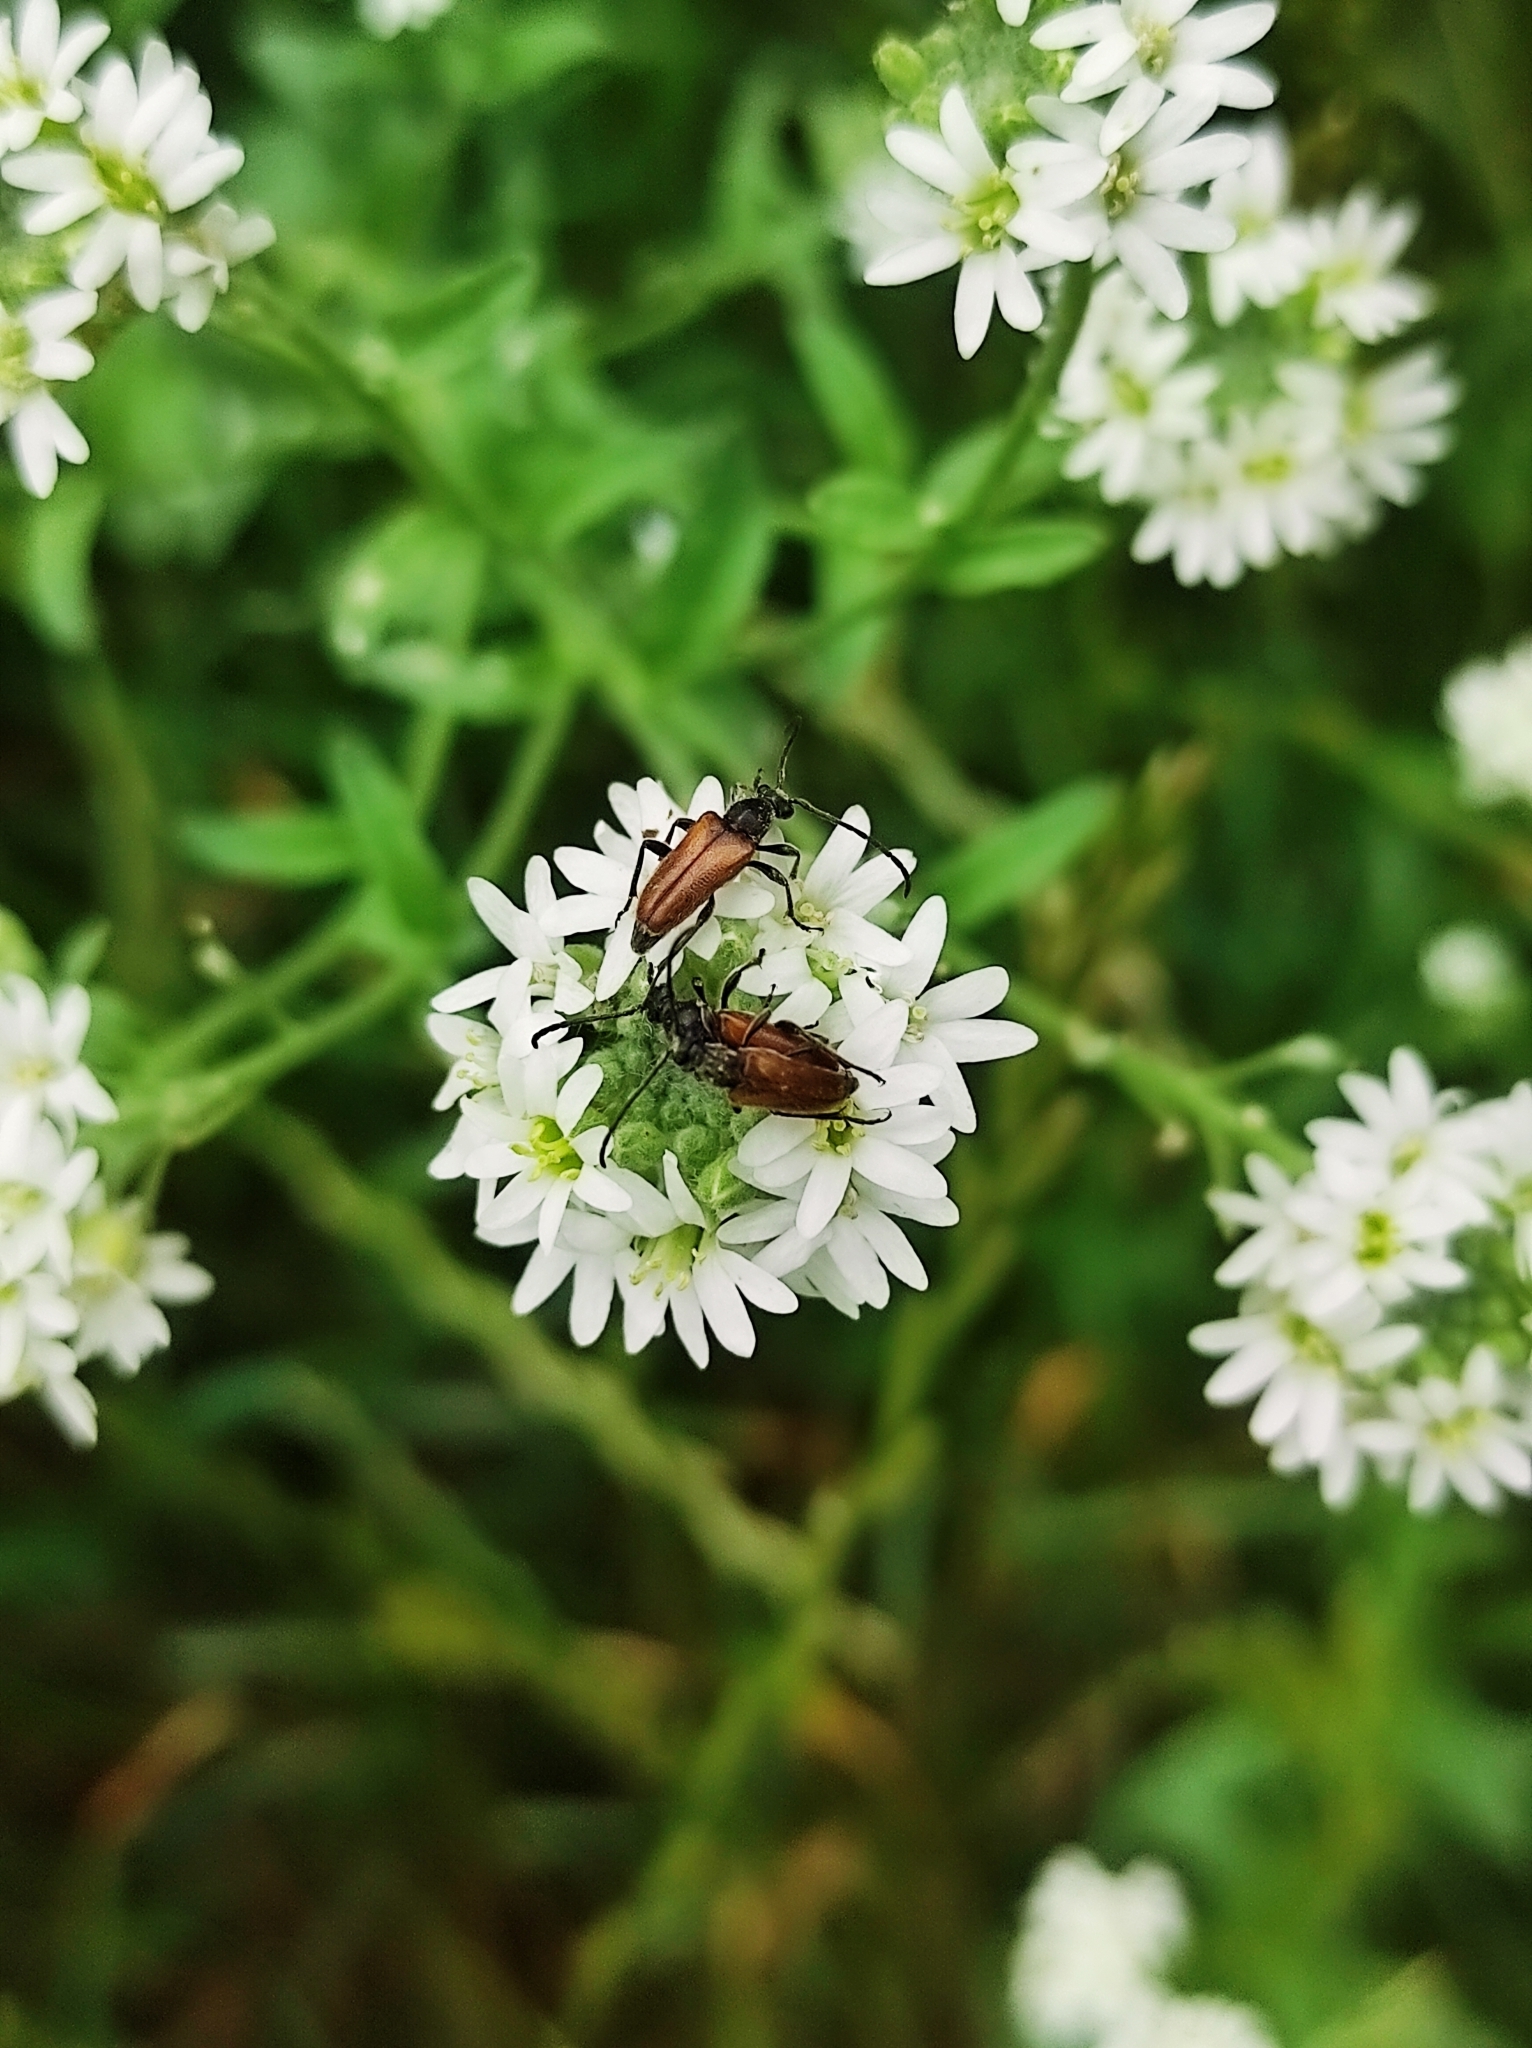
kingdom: Animalia
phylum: Arthropoda
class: Insecta
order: Coleoptera
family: Cerambycidae
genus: Pseudovadonia
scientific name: Pseudovadonia livida
